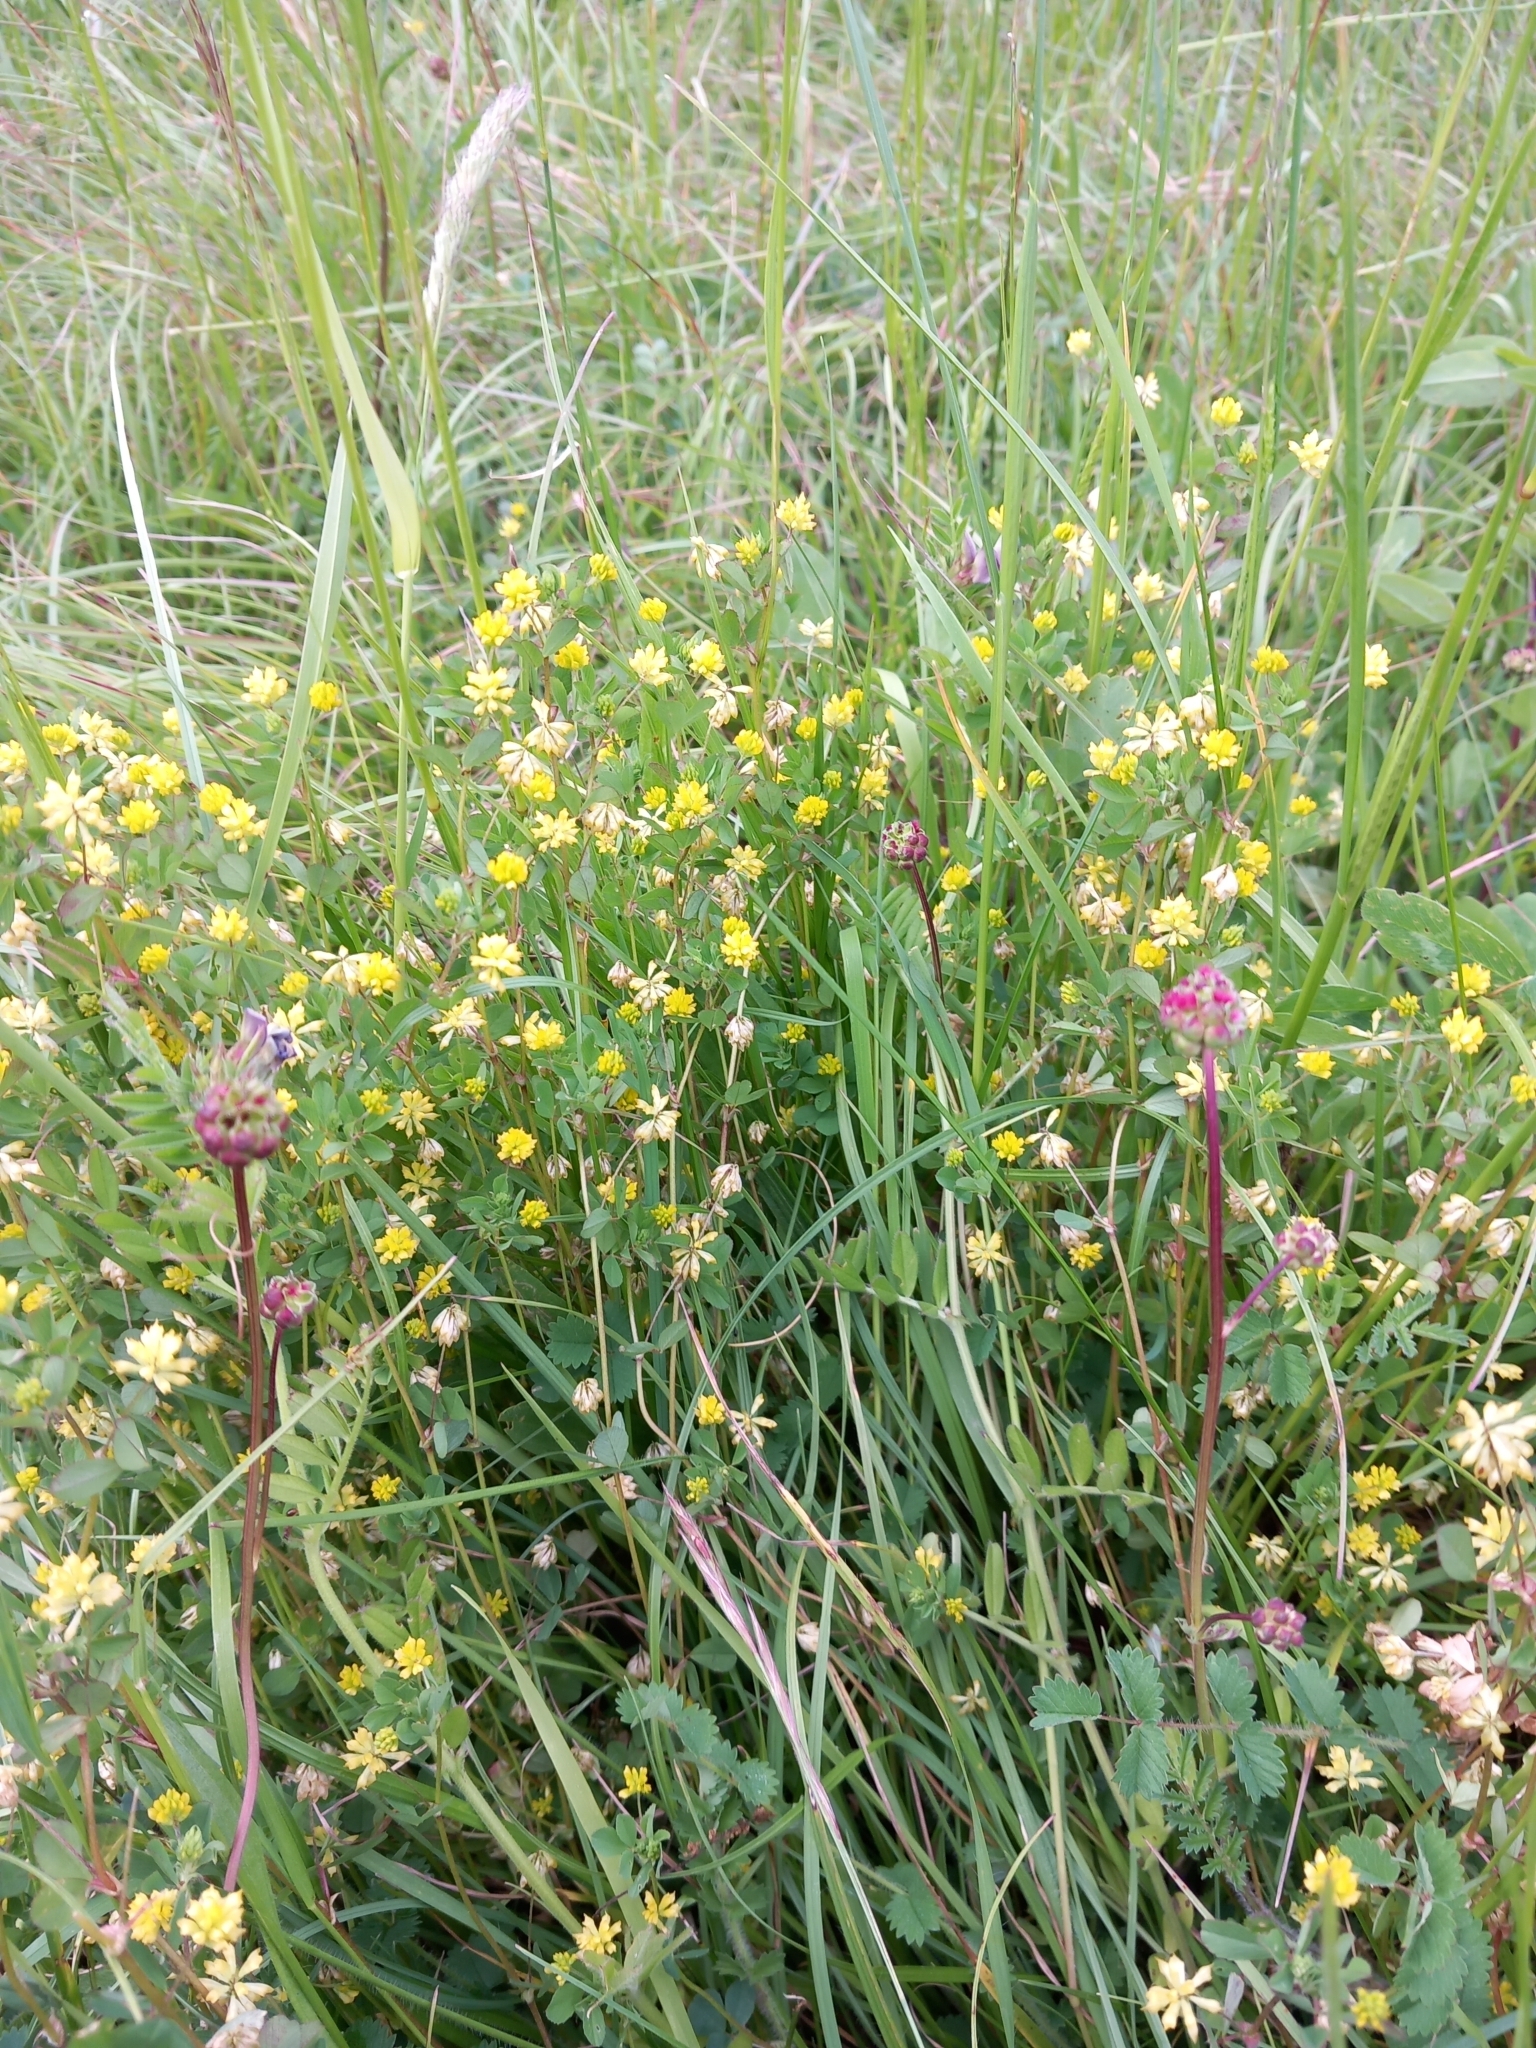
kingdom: Plantae
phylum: Tracheophyta
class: Magnoliopsida
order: Fabales
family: Fabaceae
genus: Trifolium
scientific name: Trifolium dubium
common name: Suckling clover
